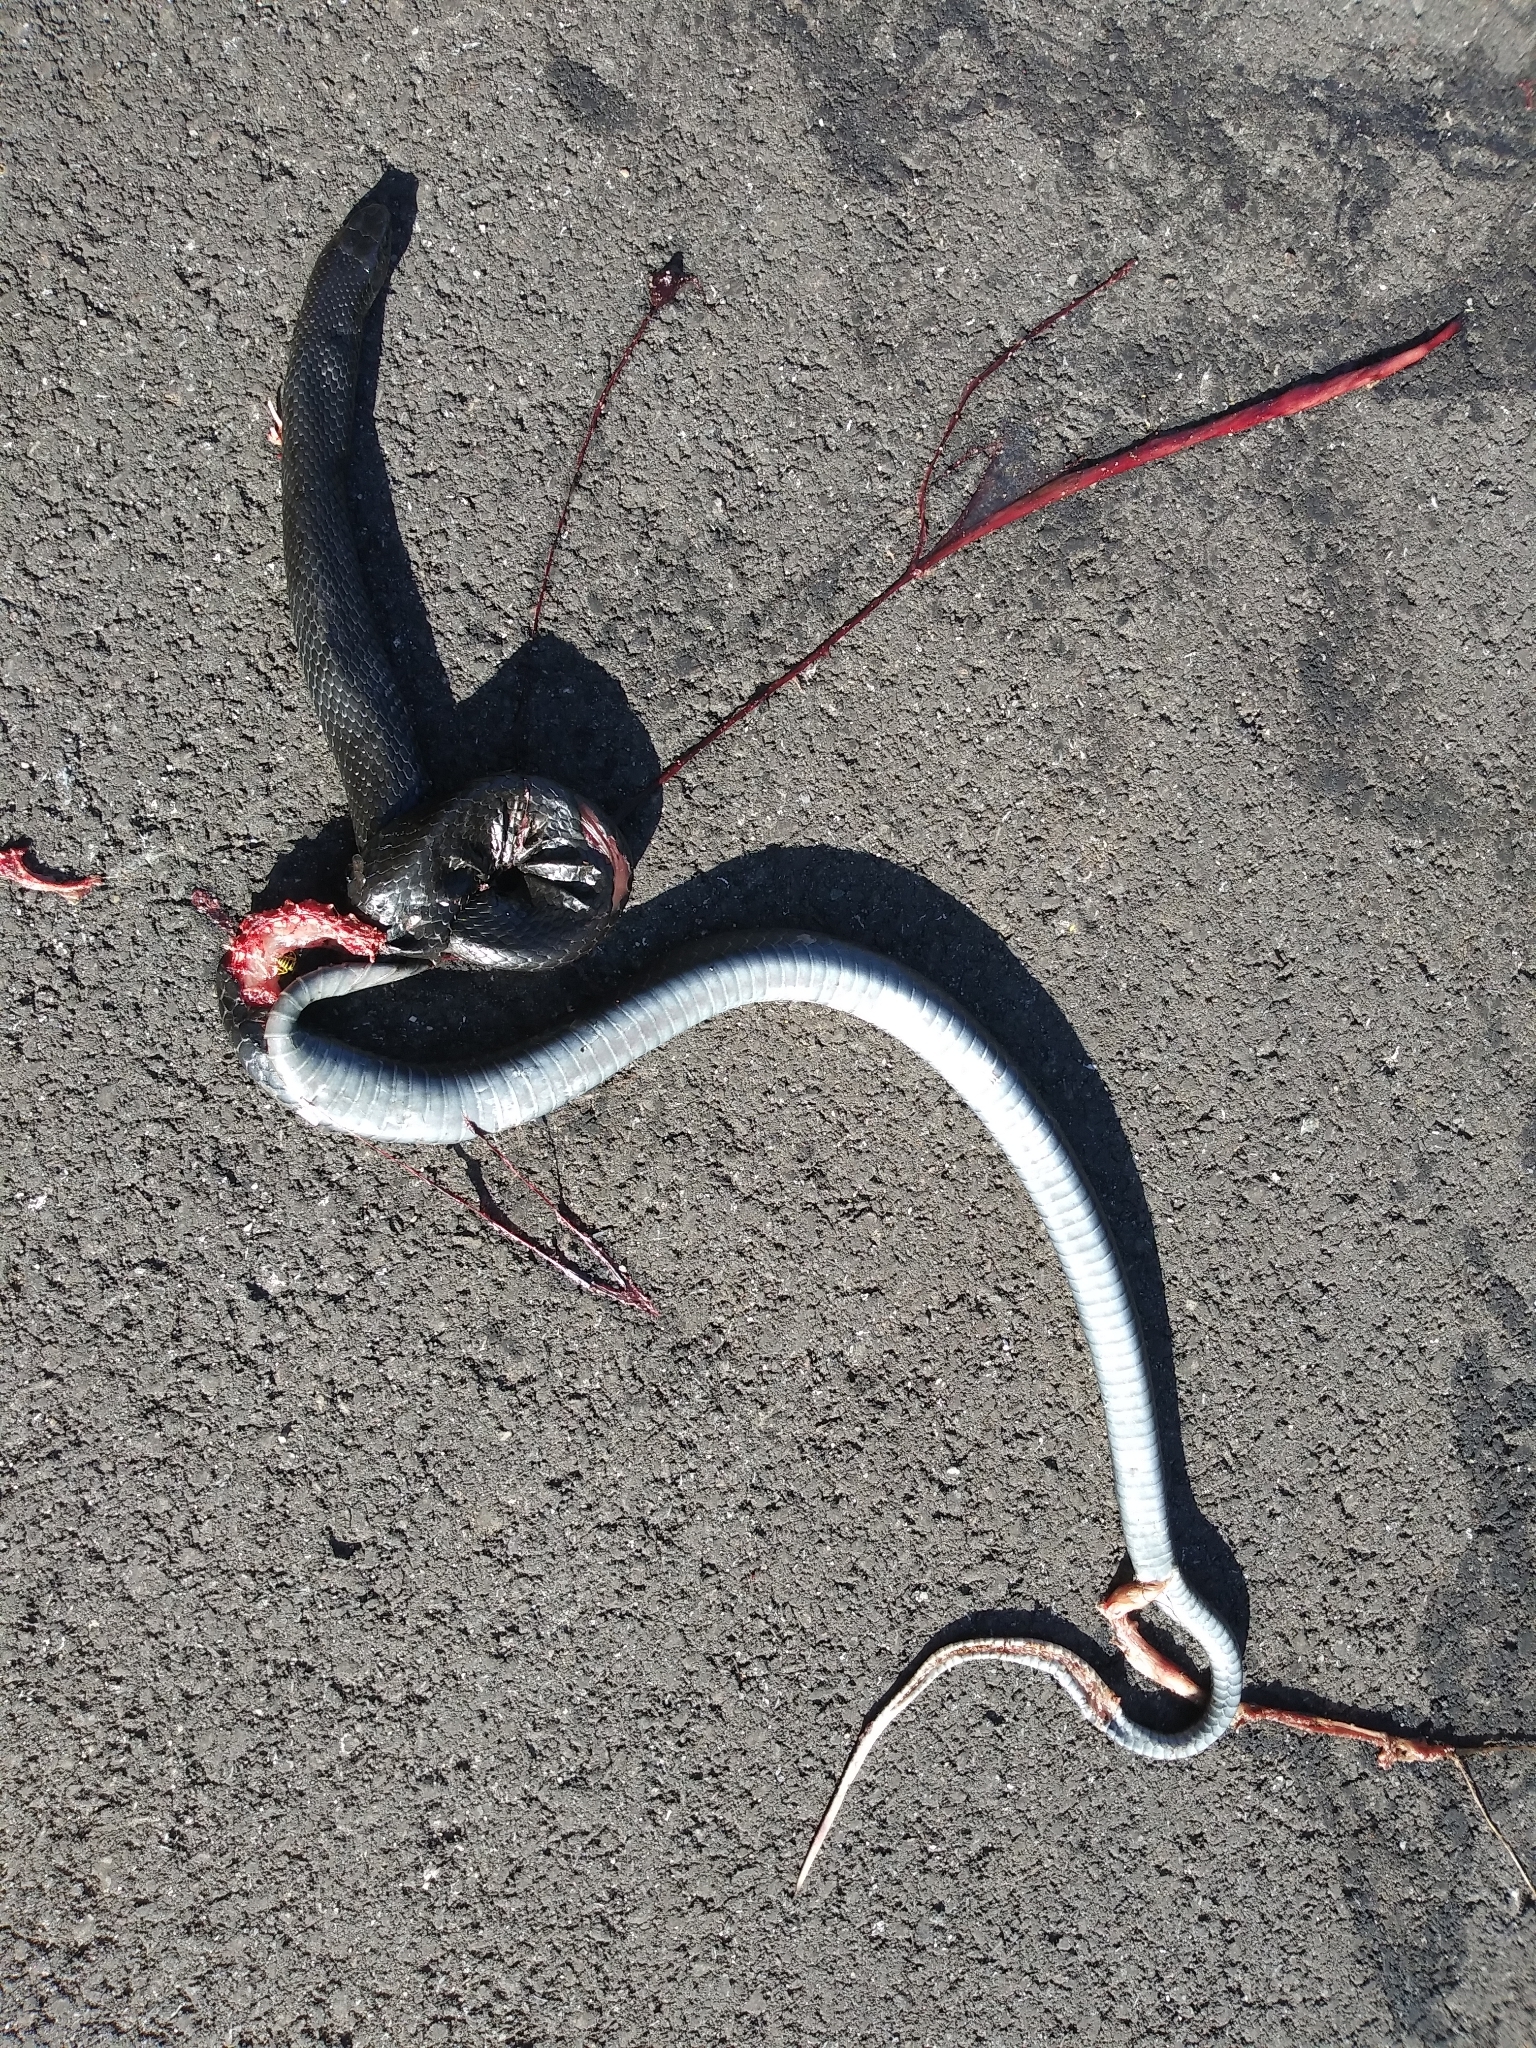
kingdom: Animalia
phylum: Chordata
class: Squamata
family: Colubridae
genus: Coluber
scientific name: Coluber constrictor
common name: Eastern racer
